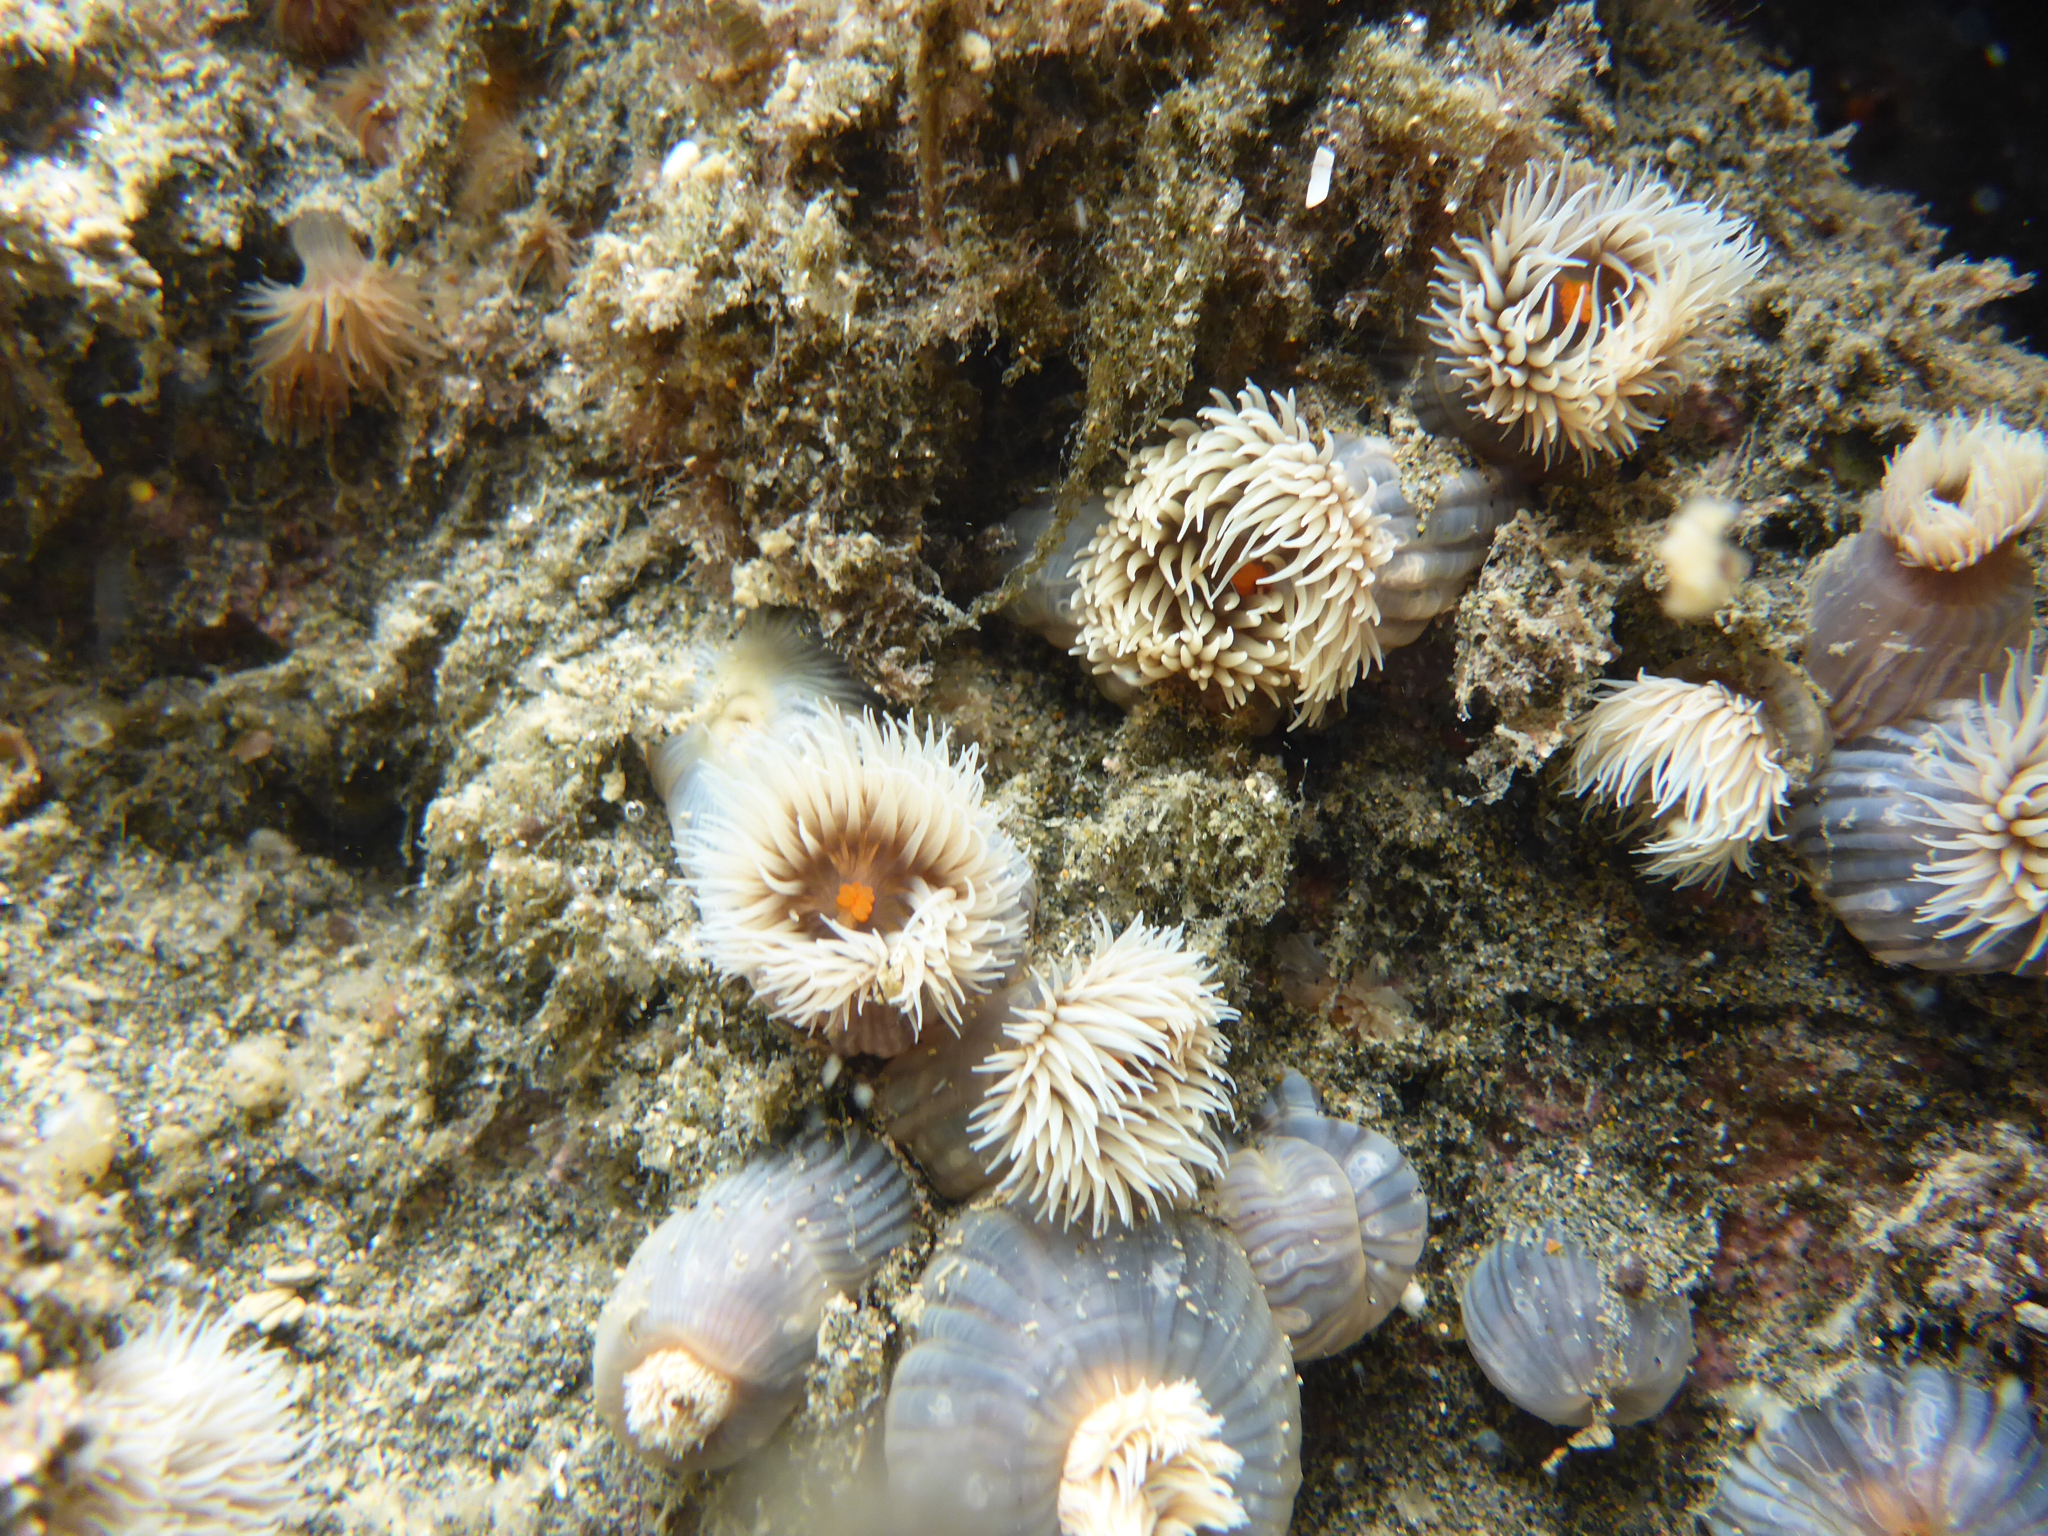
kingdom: Animalia
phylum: Cnidaria
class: Anthozoa
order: Actiniaria
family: Diadumenidae
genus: Diadumene
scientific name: Diadumene neozelanica
